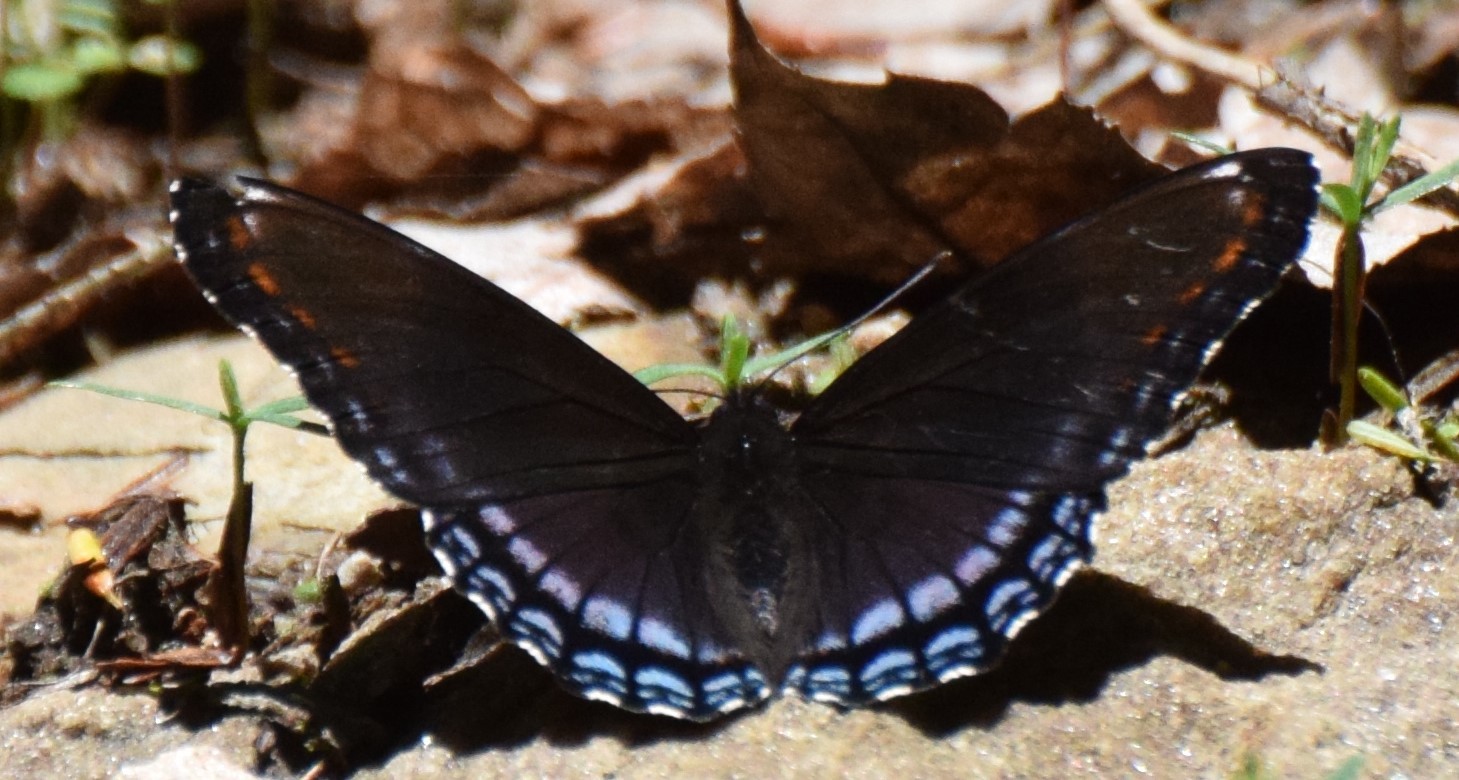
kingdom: Animalia
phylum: Arthropoda
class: Insecta
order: Lepidoptera
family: Nymphalidae
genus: Limenitis
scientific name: Limenitis astyanax
